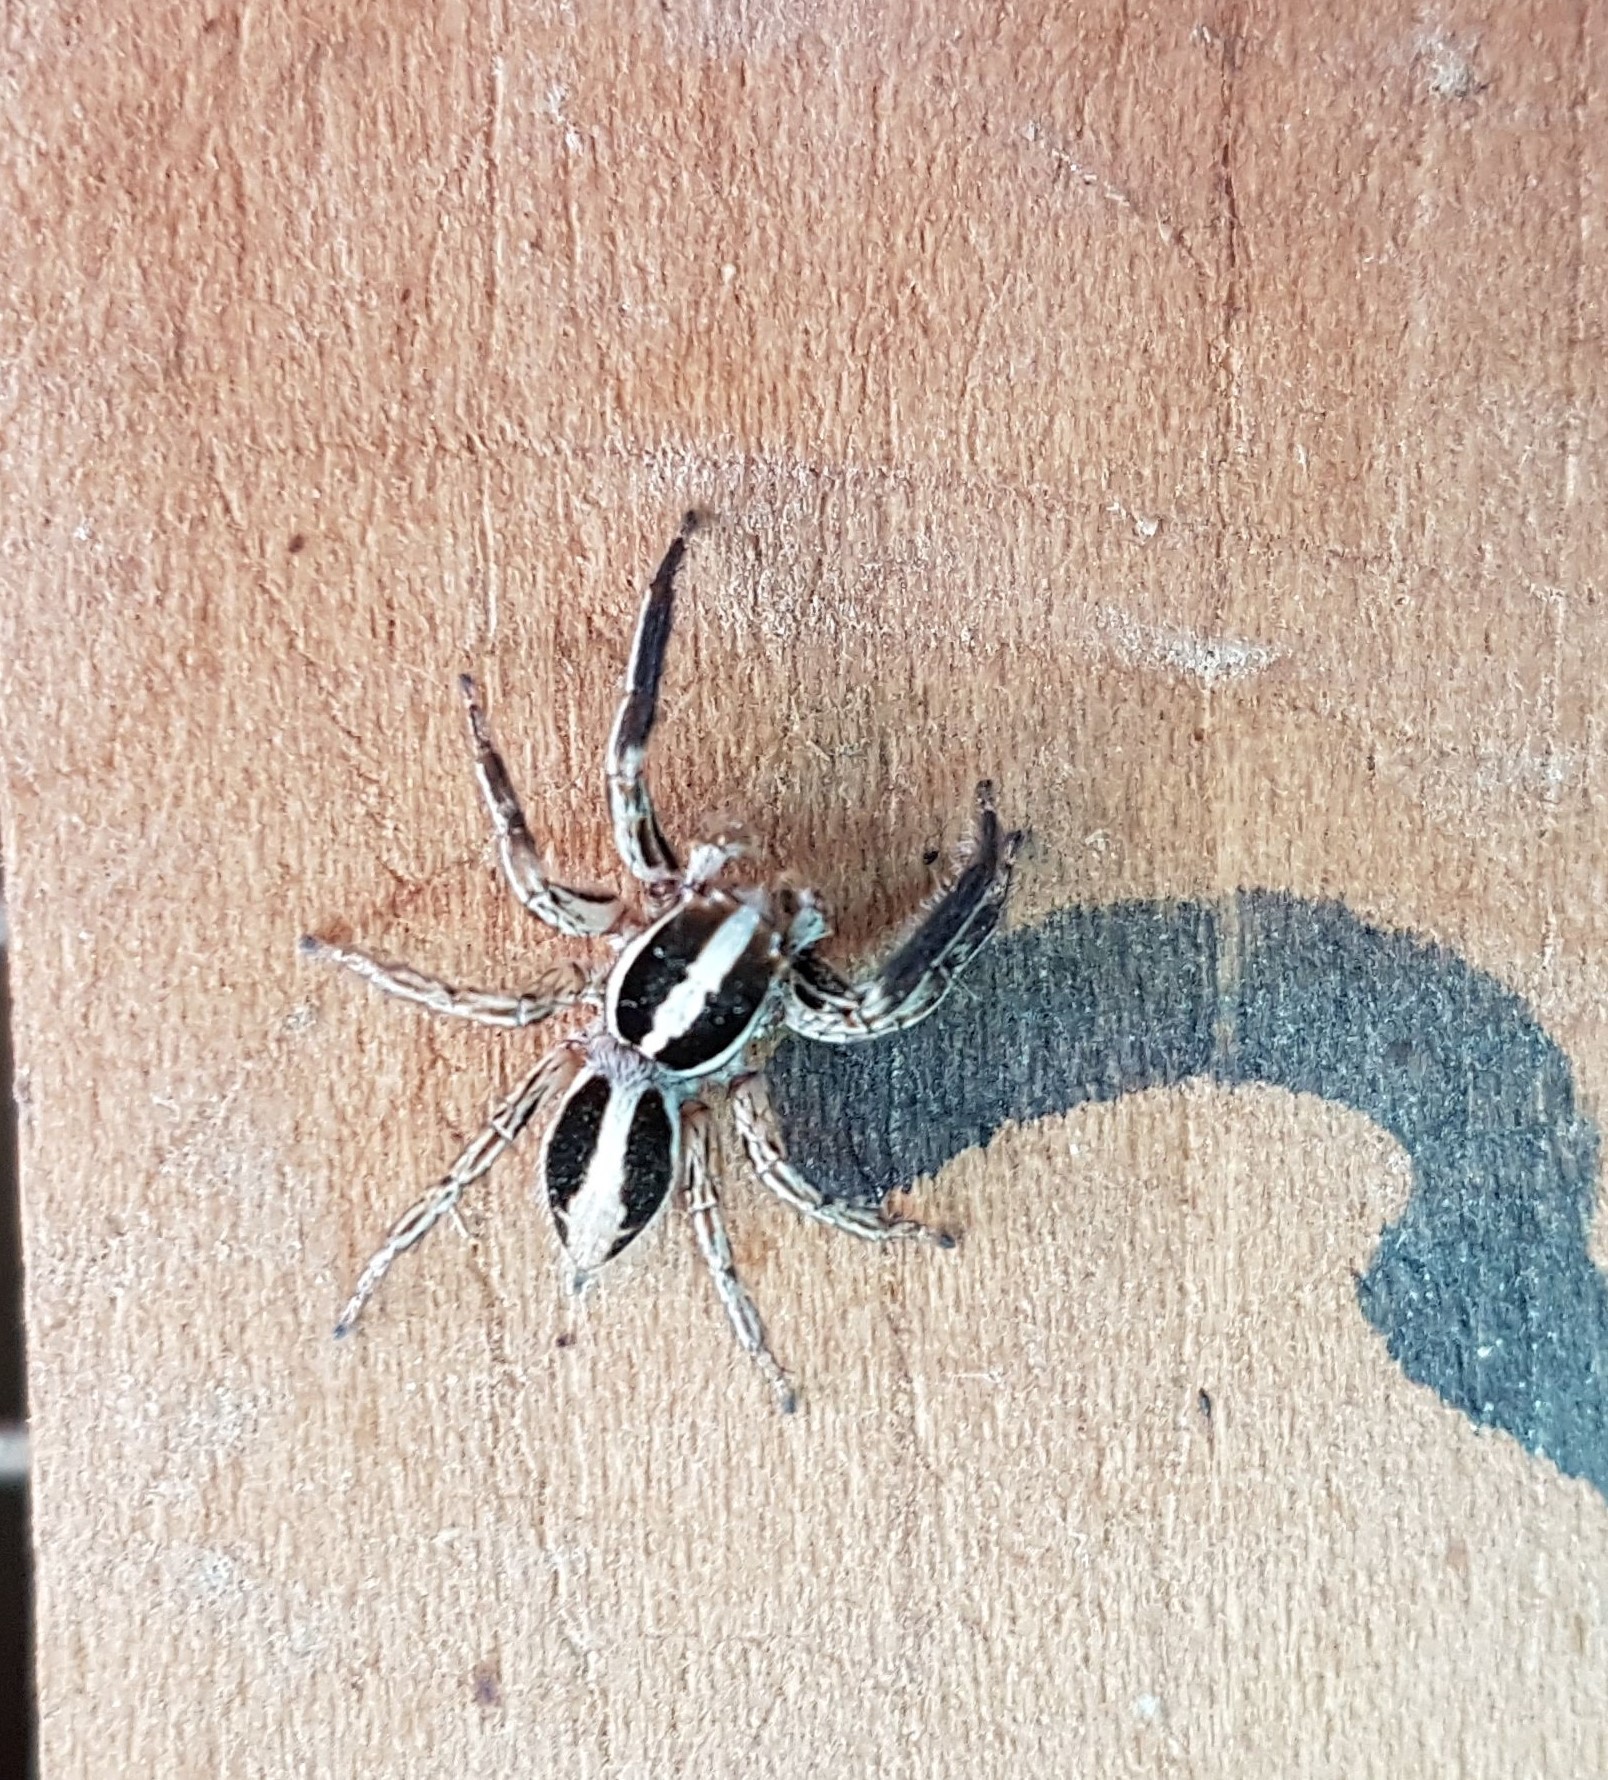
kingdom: Animalia
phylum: Arthropoda
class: Arachnida
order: Araneae
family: Salticidae
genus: Plexippus
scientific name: Plexippus paykulli
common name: Pantropical jumper
